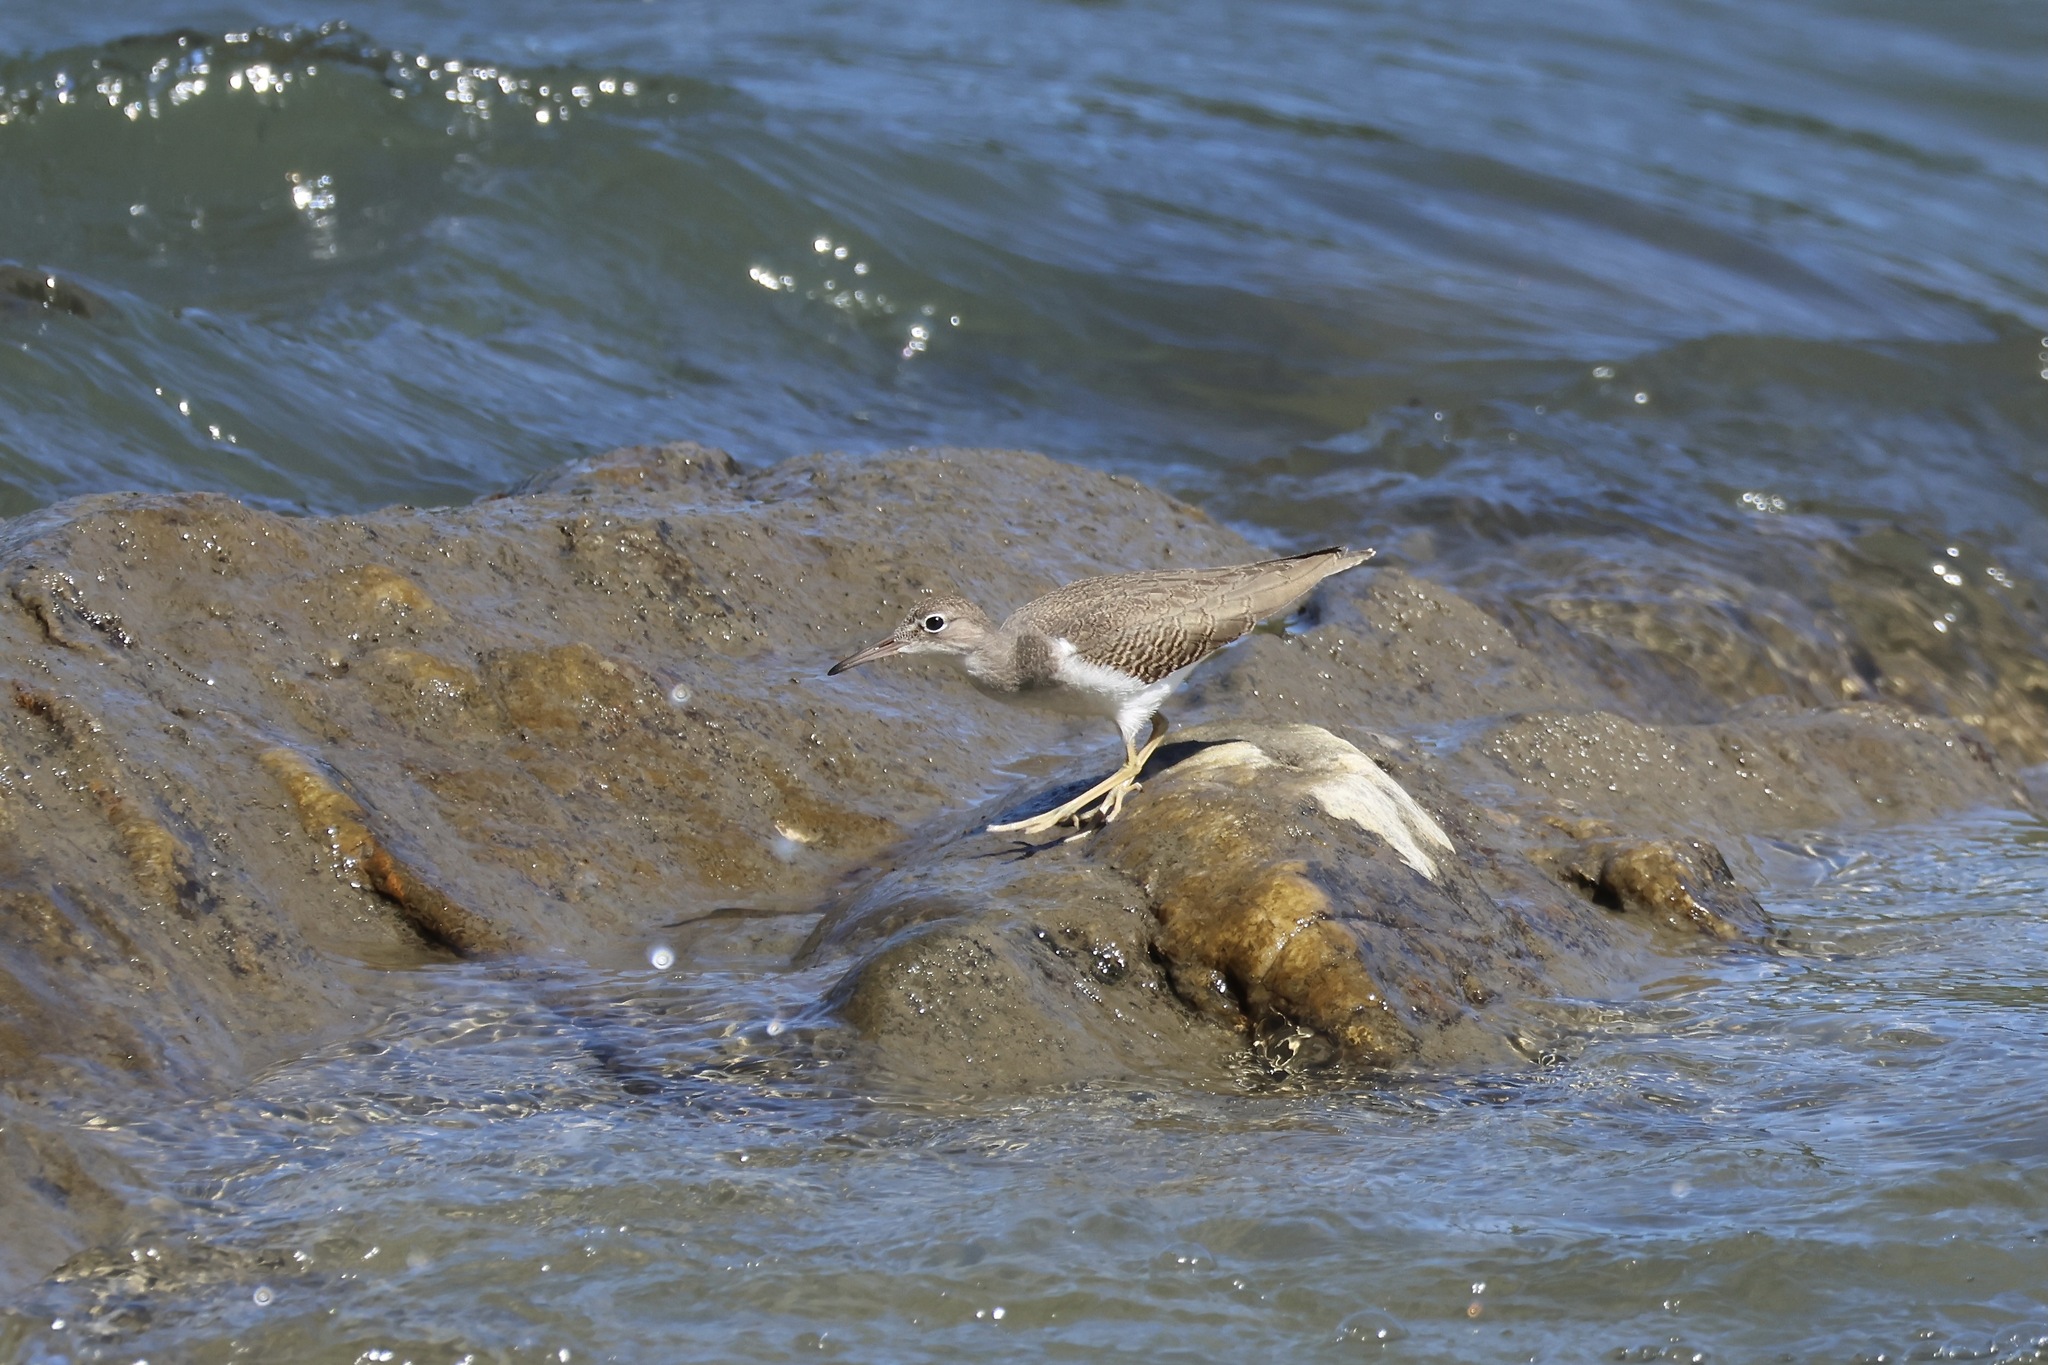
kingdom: Animalia
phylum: Chordata
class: Aves
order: Charadriiformes
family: Scolopacidae
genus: Actitis
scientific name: Actitis macularius
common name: Spotted sandpiper
